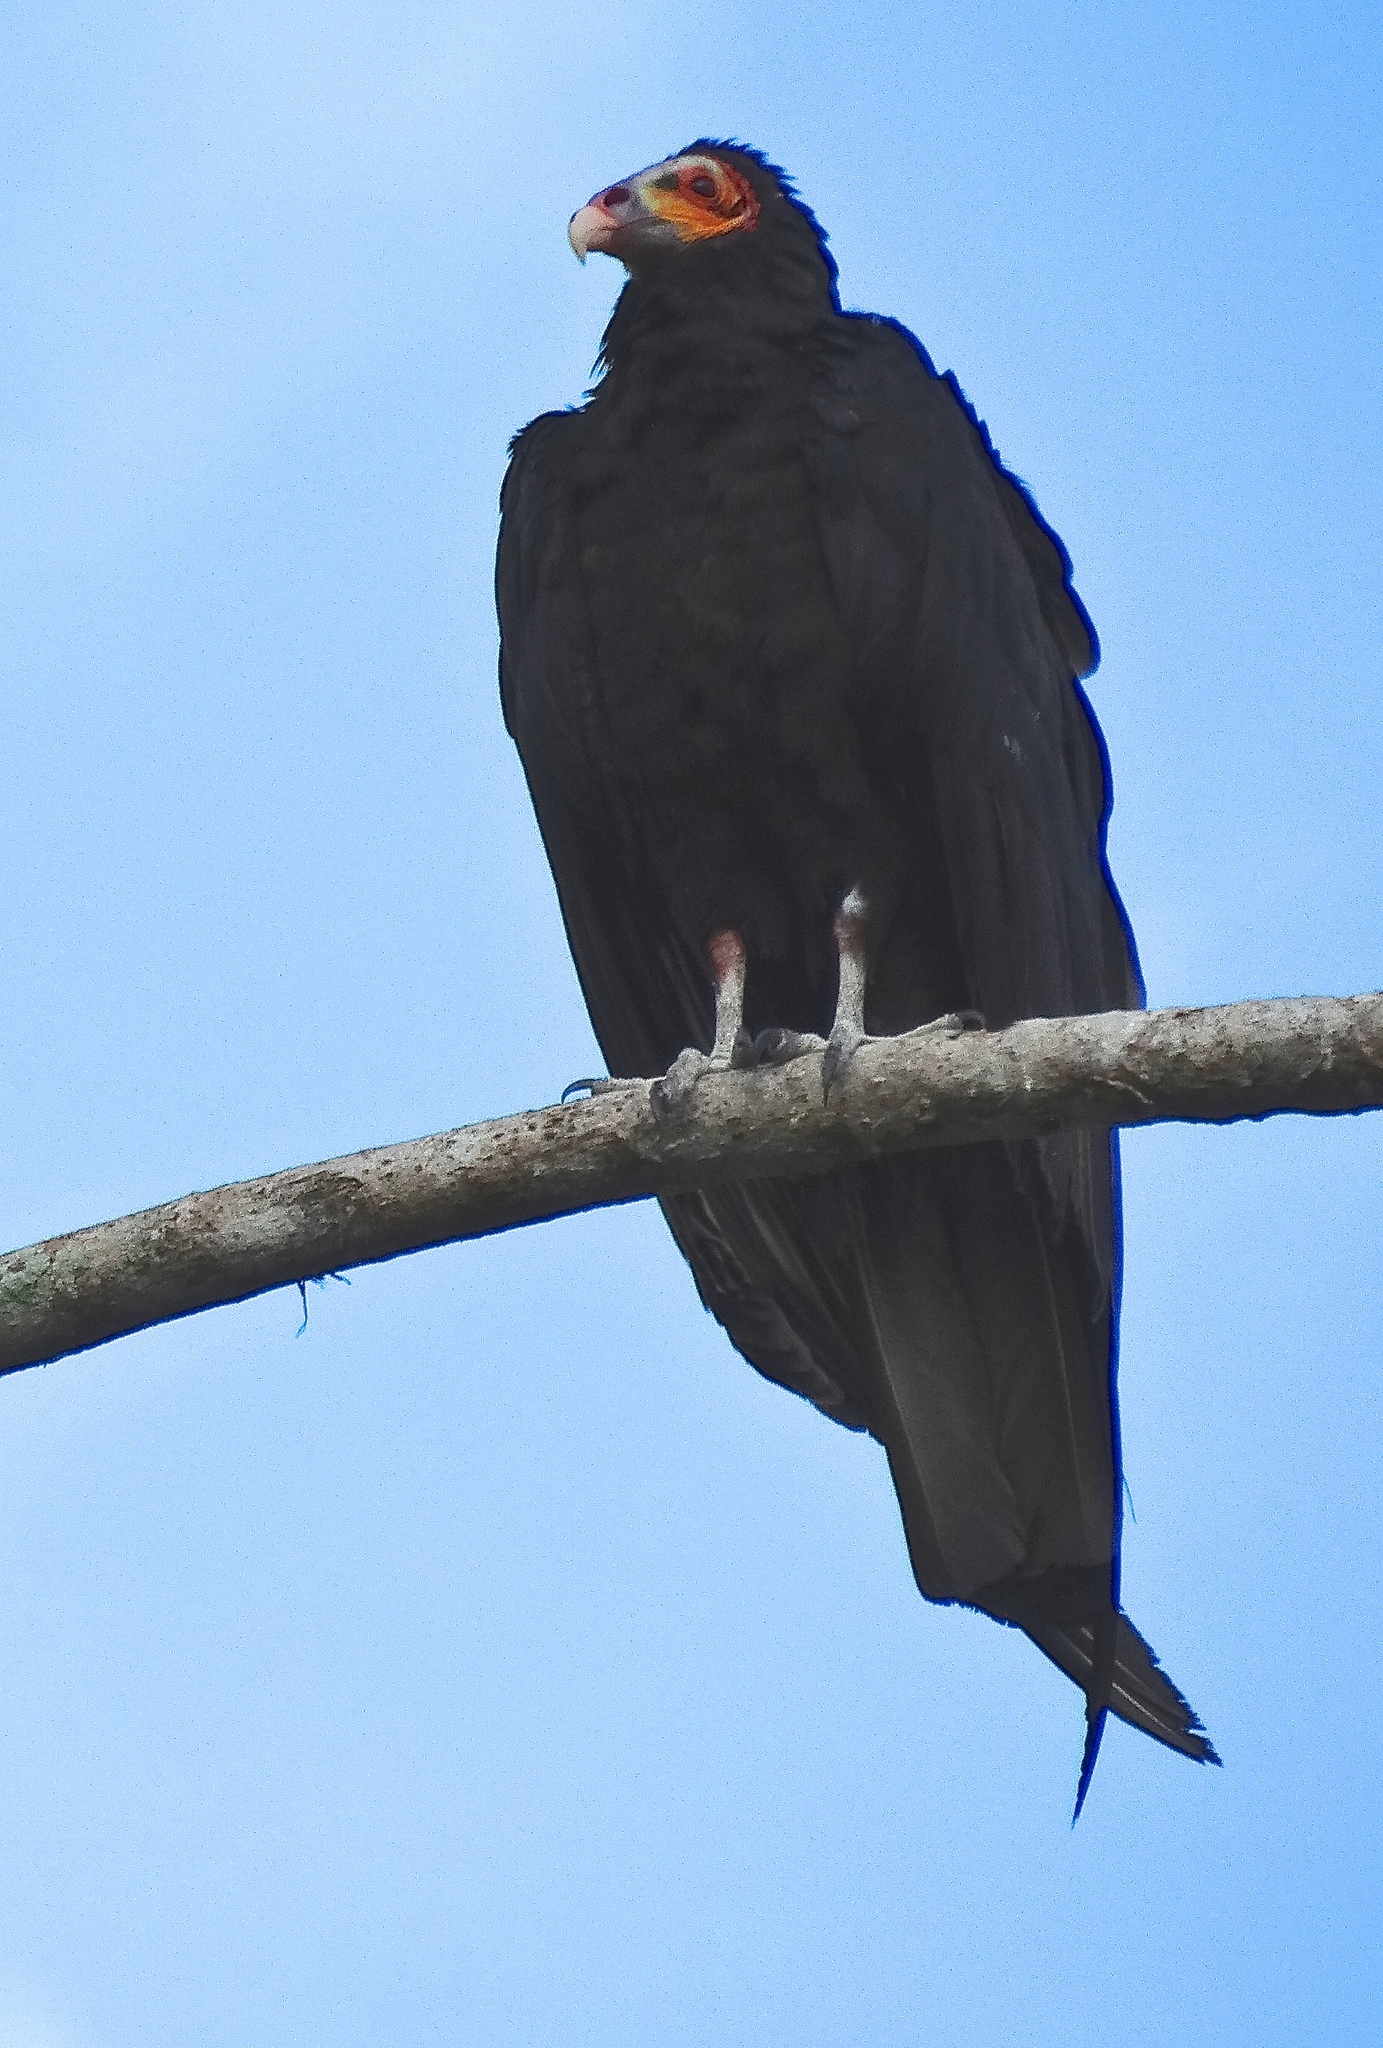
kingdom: Animalia
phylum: Chordata
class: Aves
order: Accipitriformes
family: Cathartidae
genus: Cathartes
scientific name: Cathartes burrovianus
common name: Lesser yellow-headed vulture
